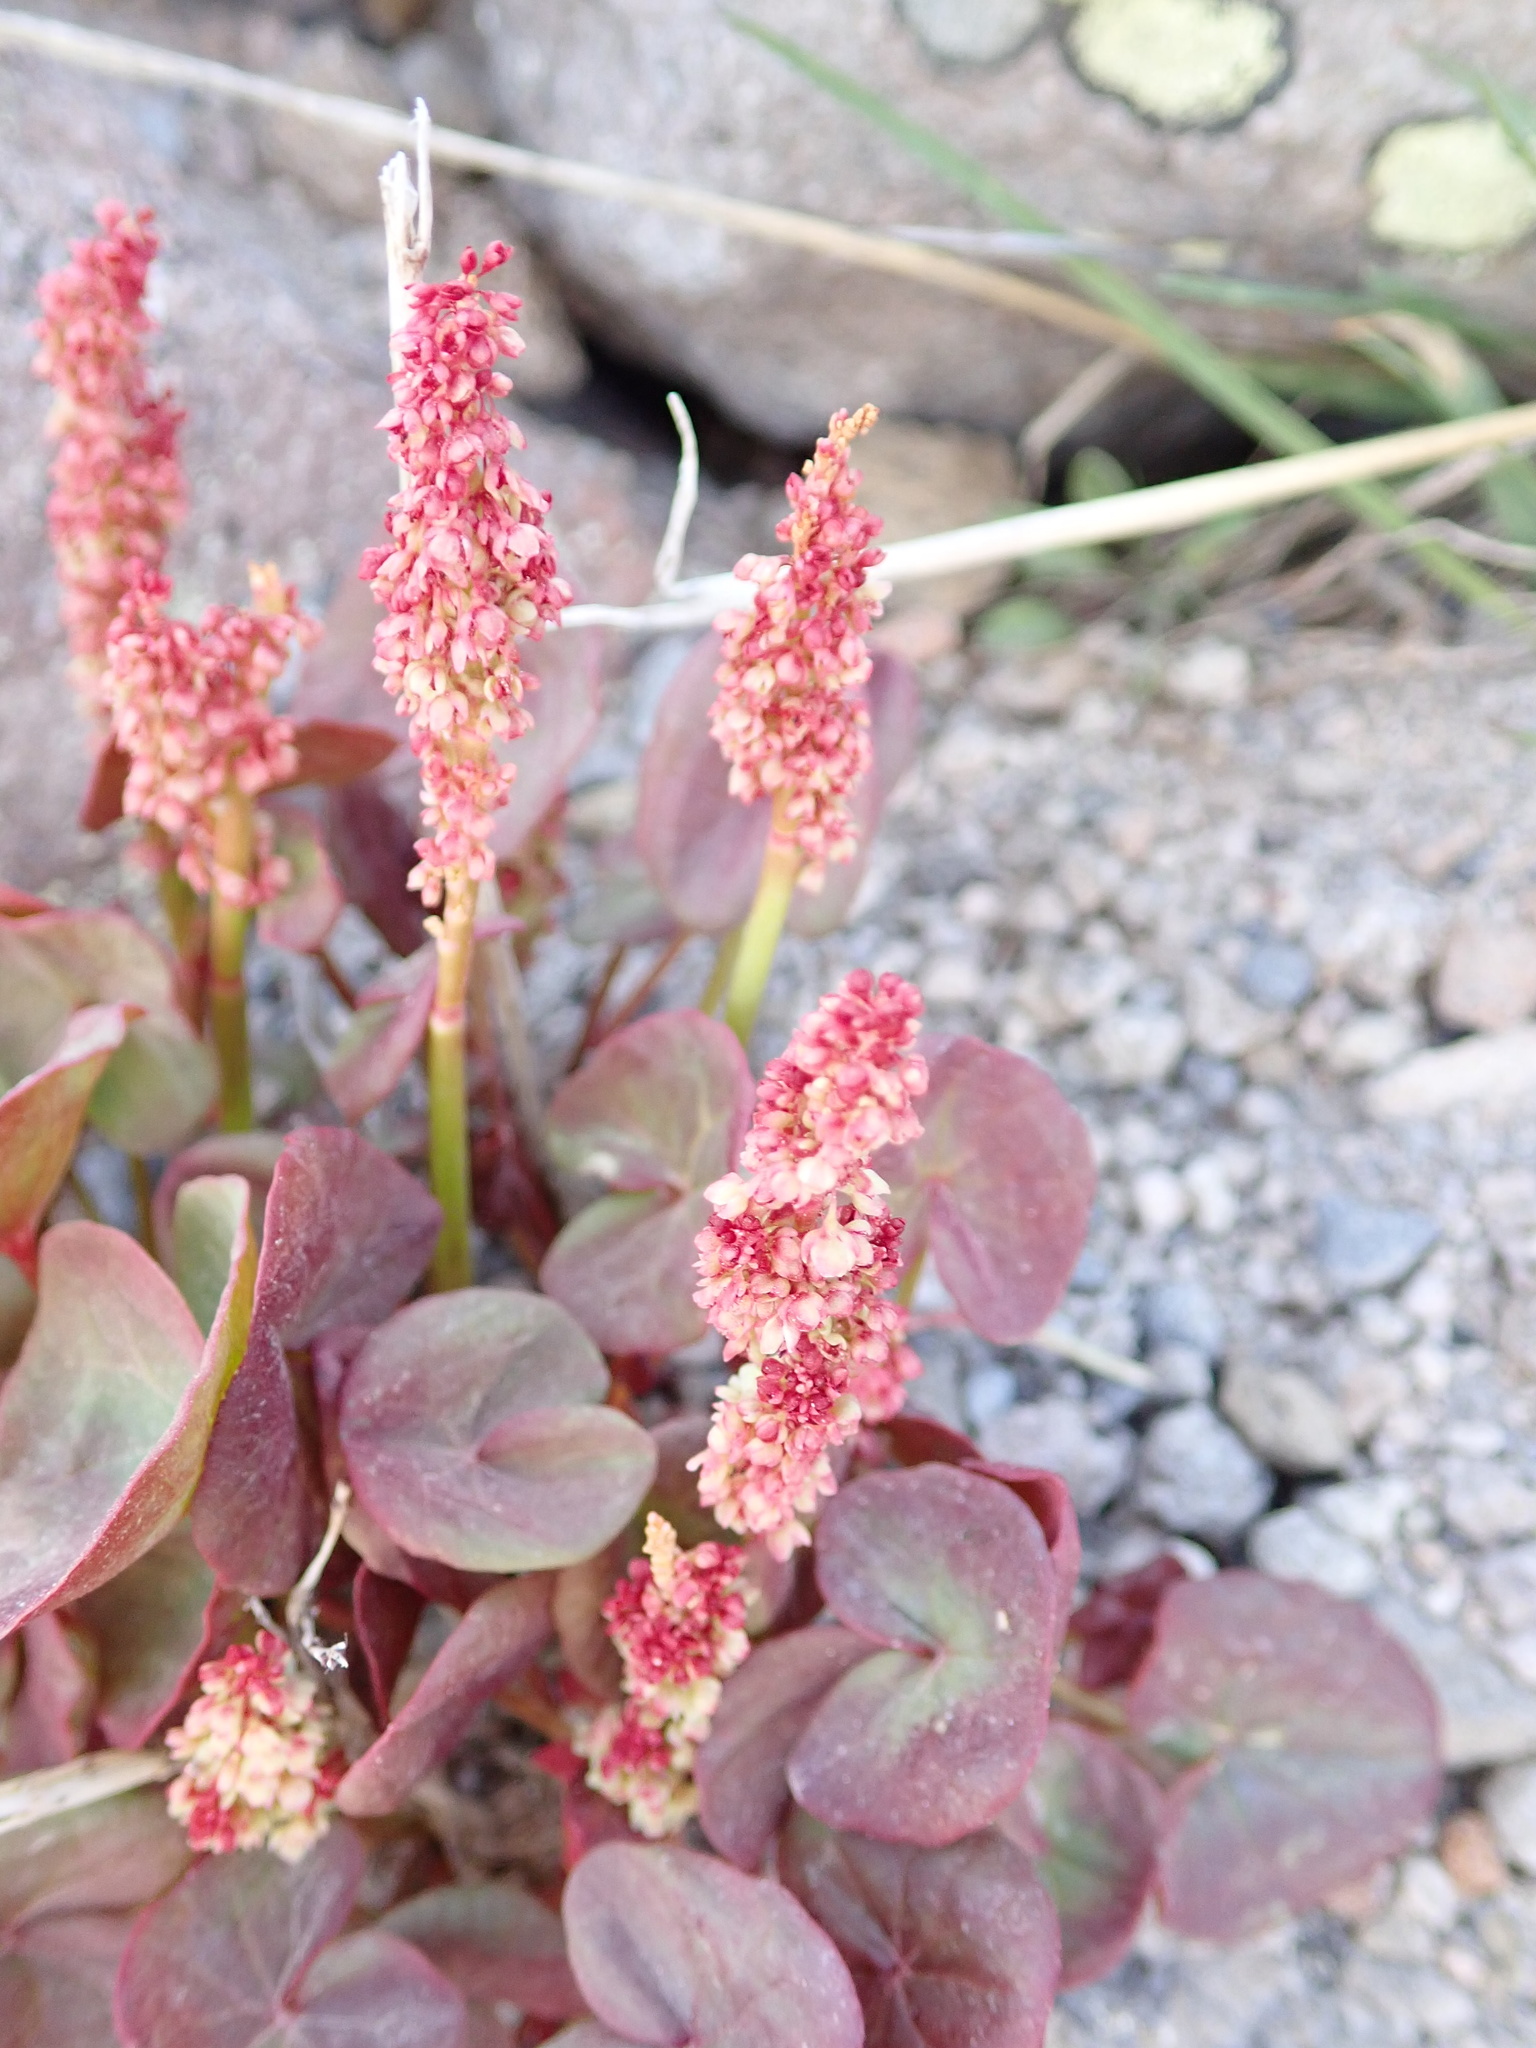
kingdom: Plantae
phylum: Tracheophyta
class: Magnoliopsida
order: Caryophyllales
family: Polygonaceae
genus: Oxyria
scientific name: Oxyria digyna
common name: Alpine mountain-sorrel
